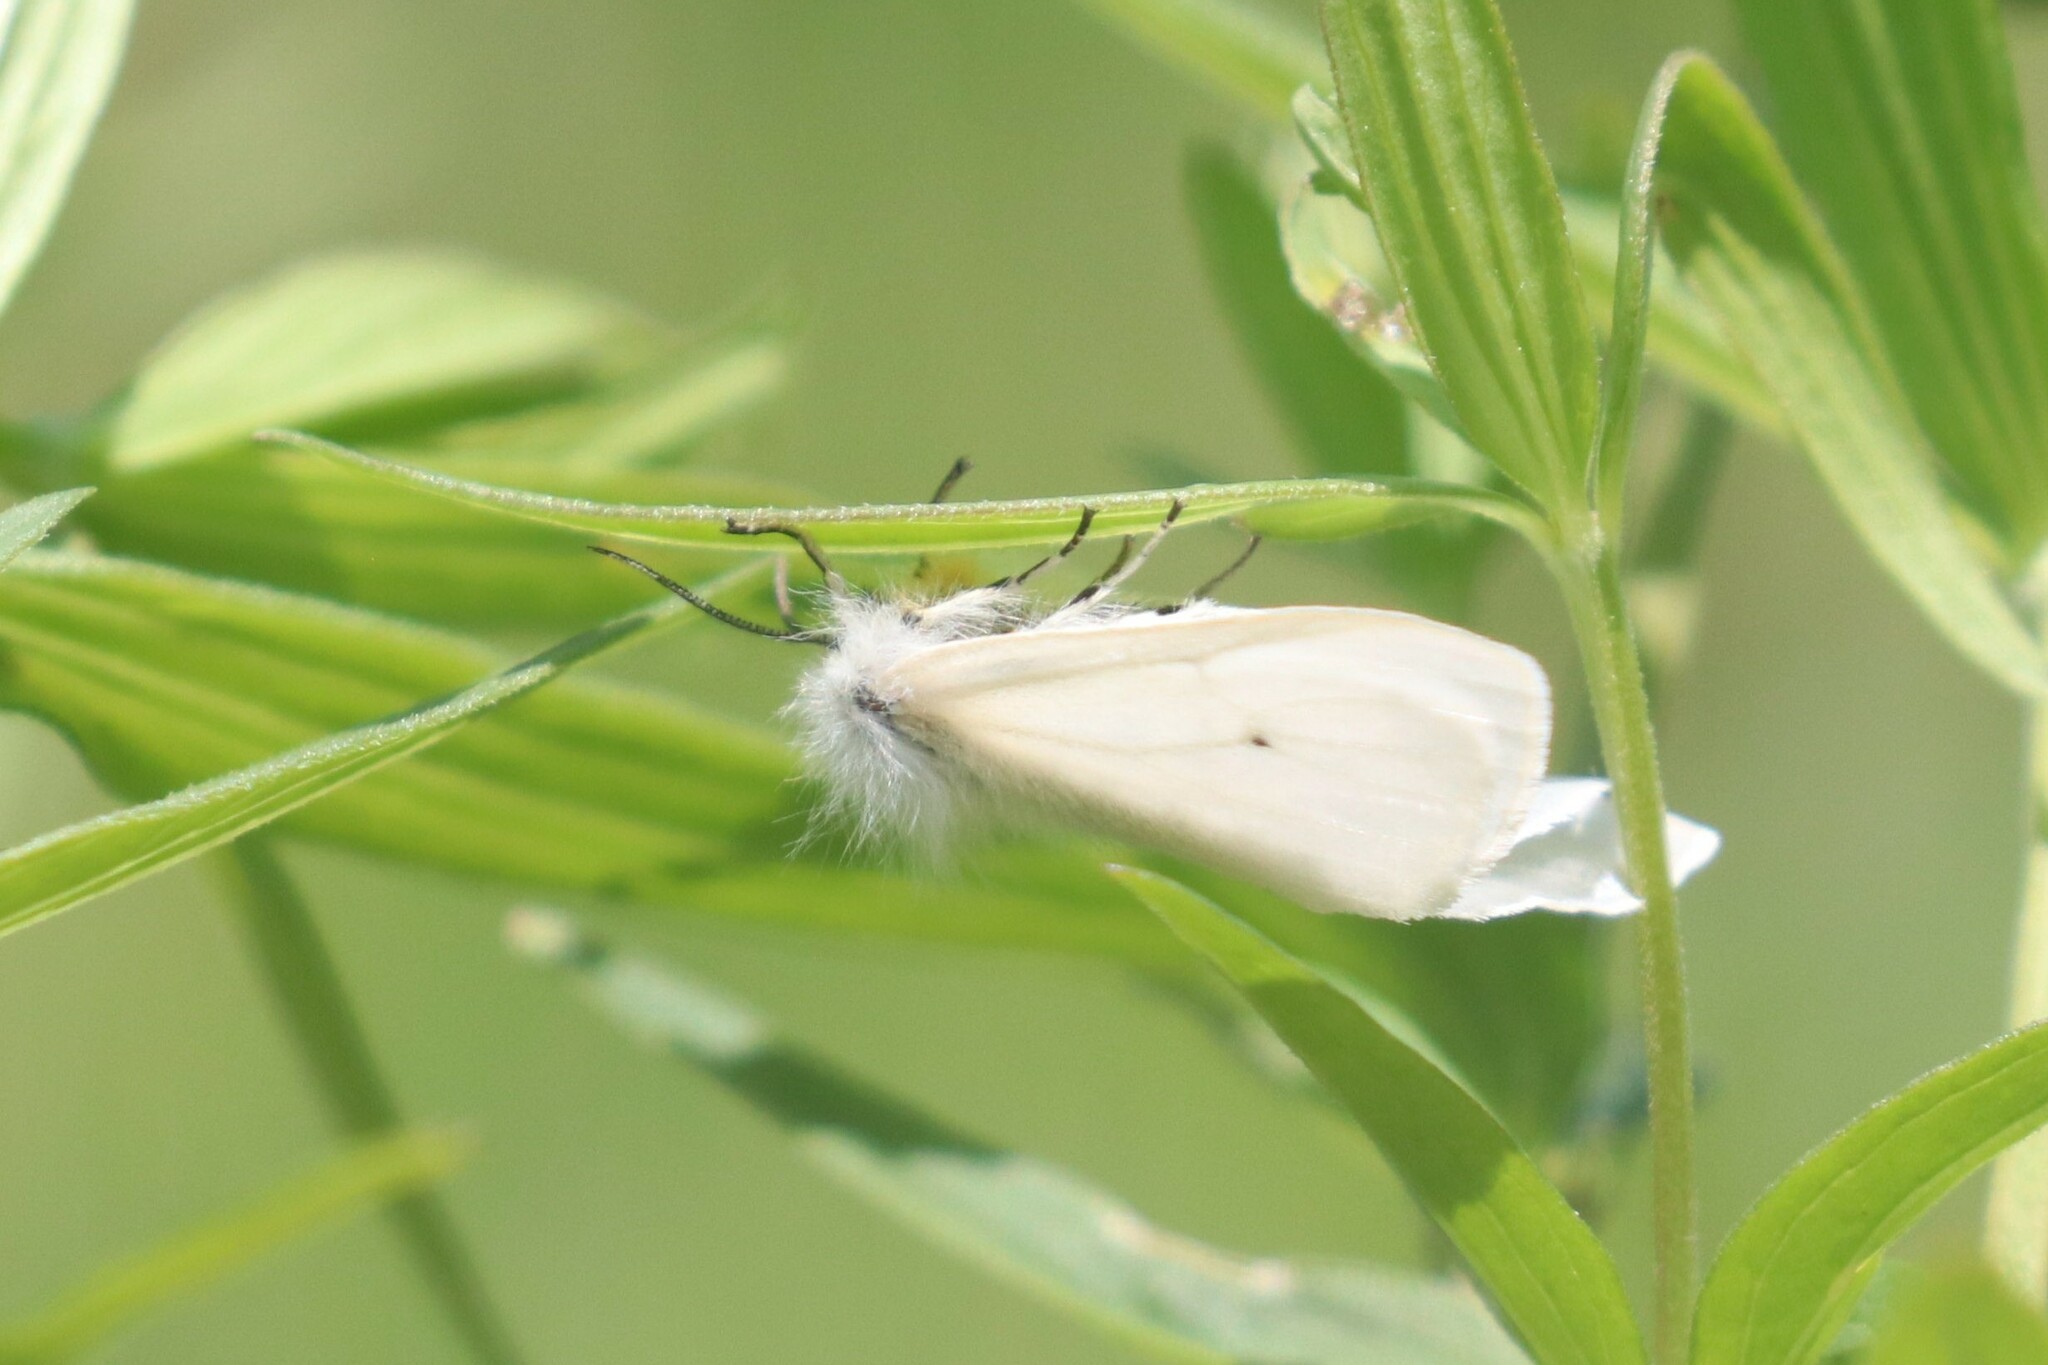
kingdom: Animalia
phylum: Arthropoda
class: Insecta
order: Lepidoptera
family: Erebidae
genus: Diaphora
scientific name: Diaphora mendica
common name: Muslin moth
